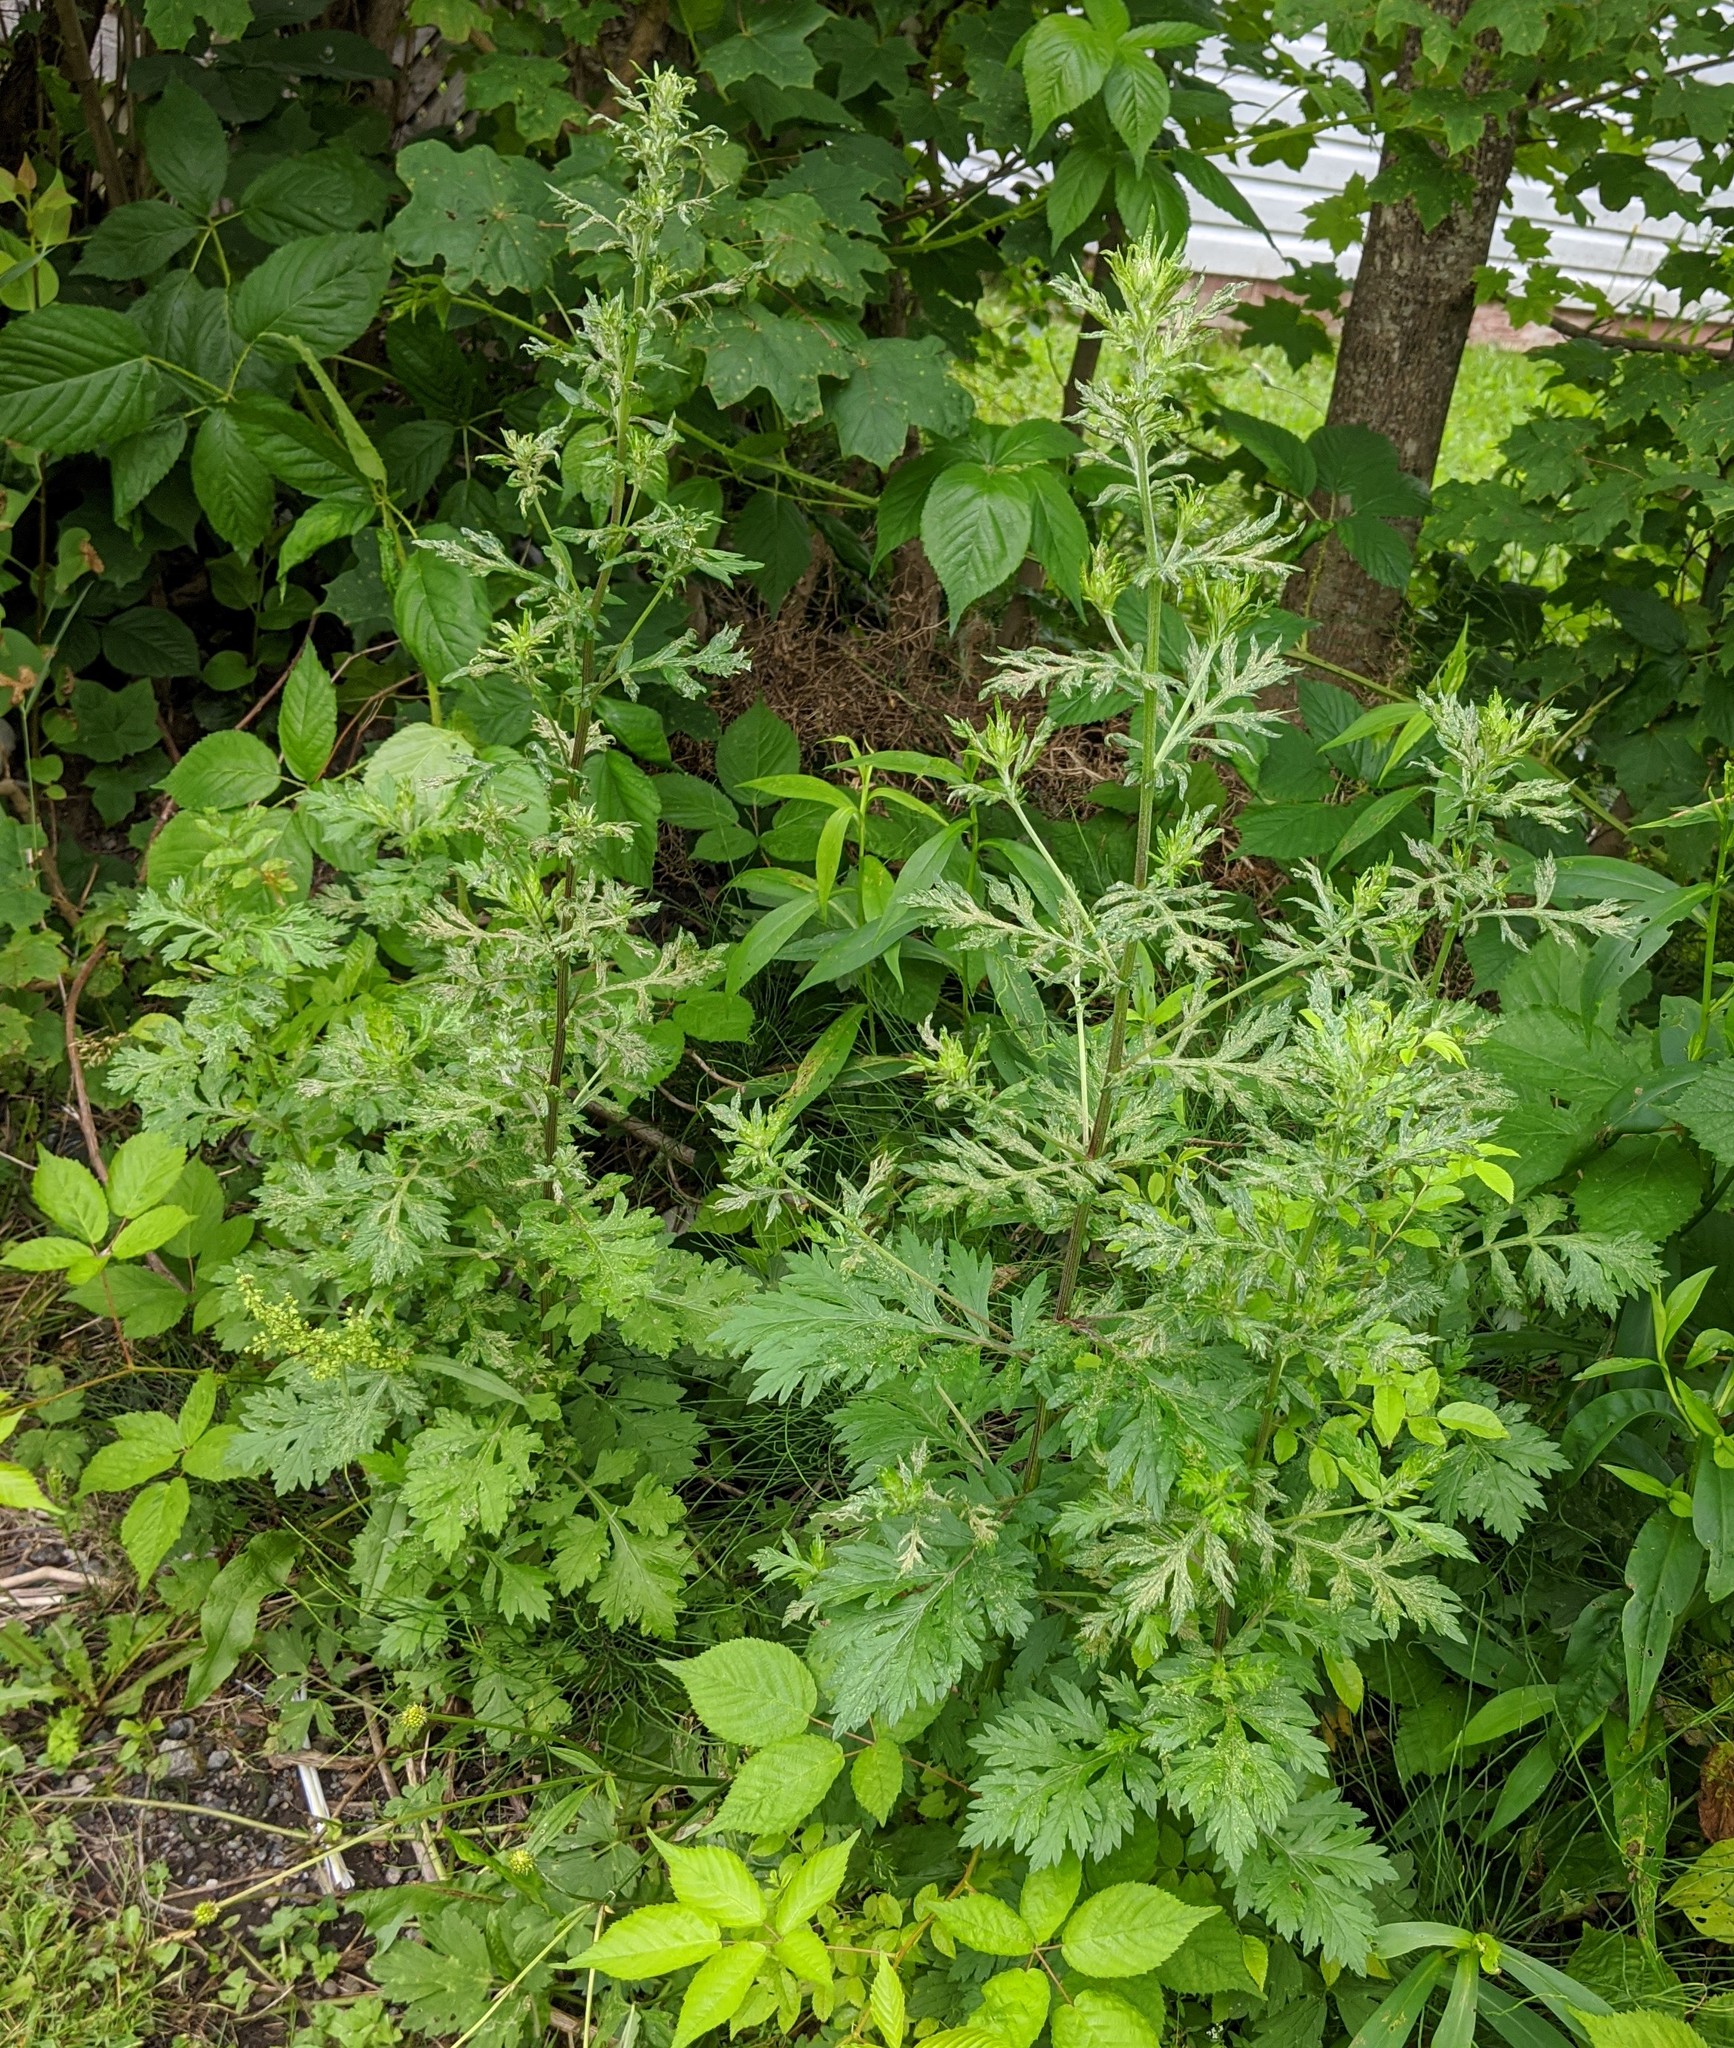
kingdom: Plantae
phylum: Tracheophyta
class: Magnoliopsida
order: Asterales
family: Asteraceae
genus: Artemisia
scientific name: Artemisia vulgaris
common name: Mugwort
